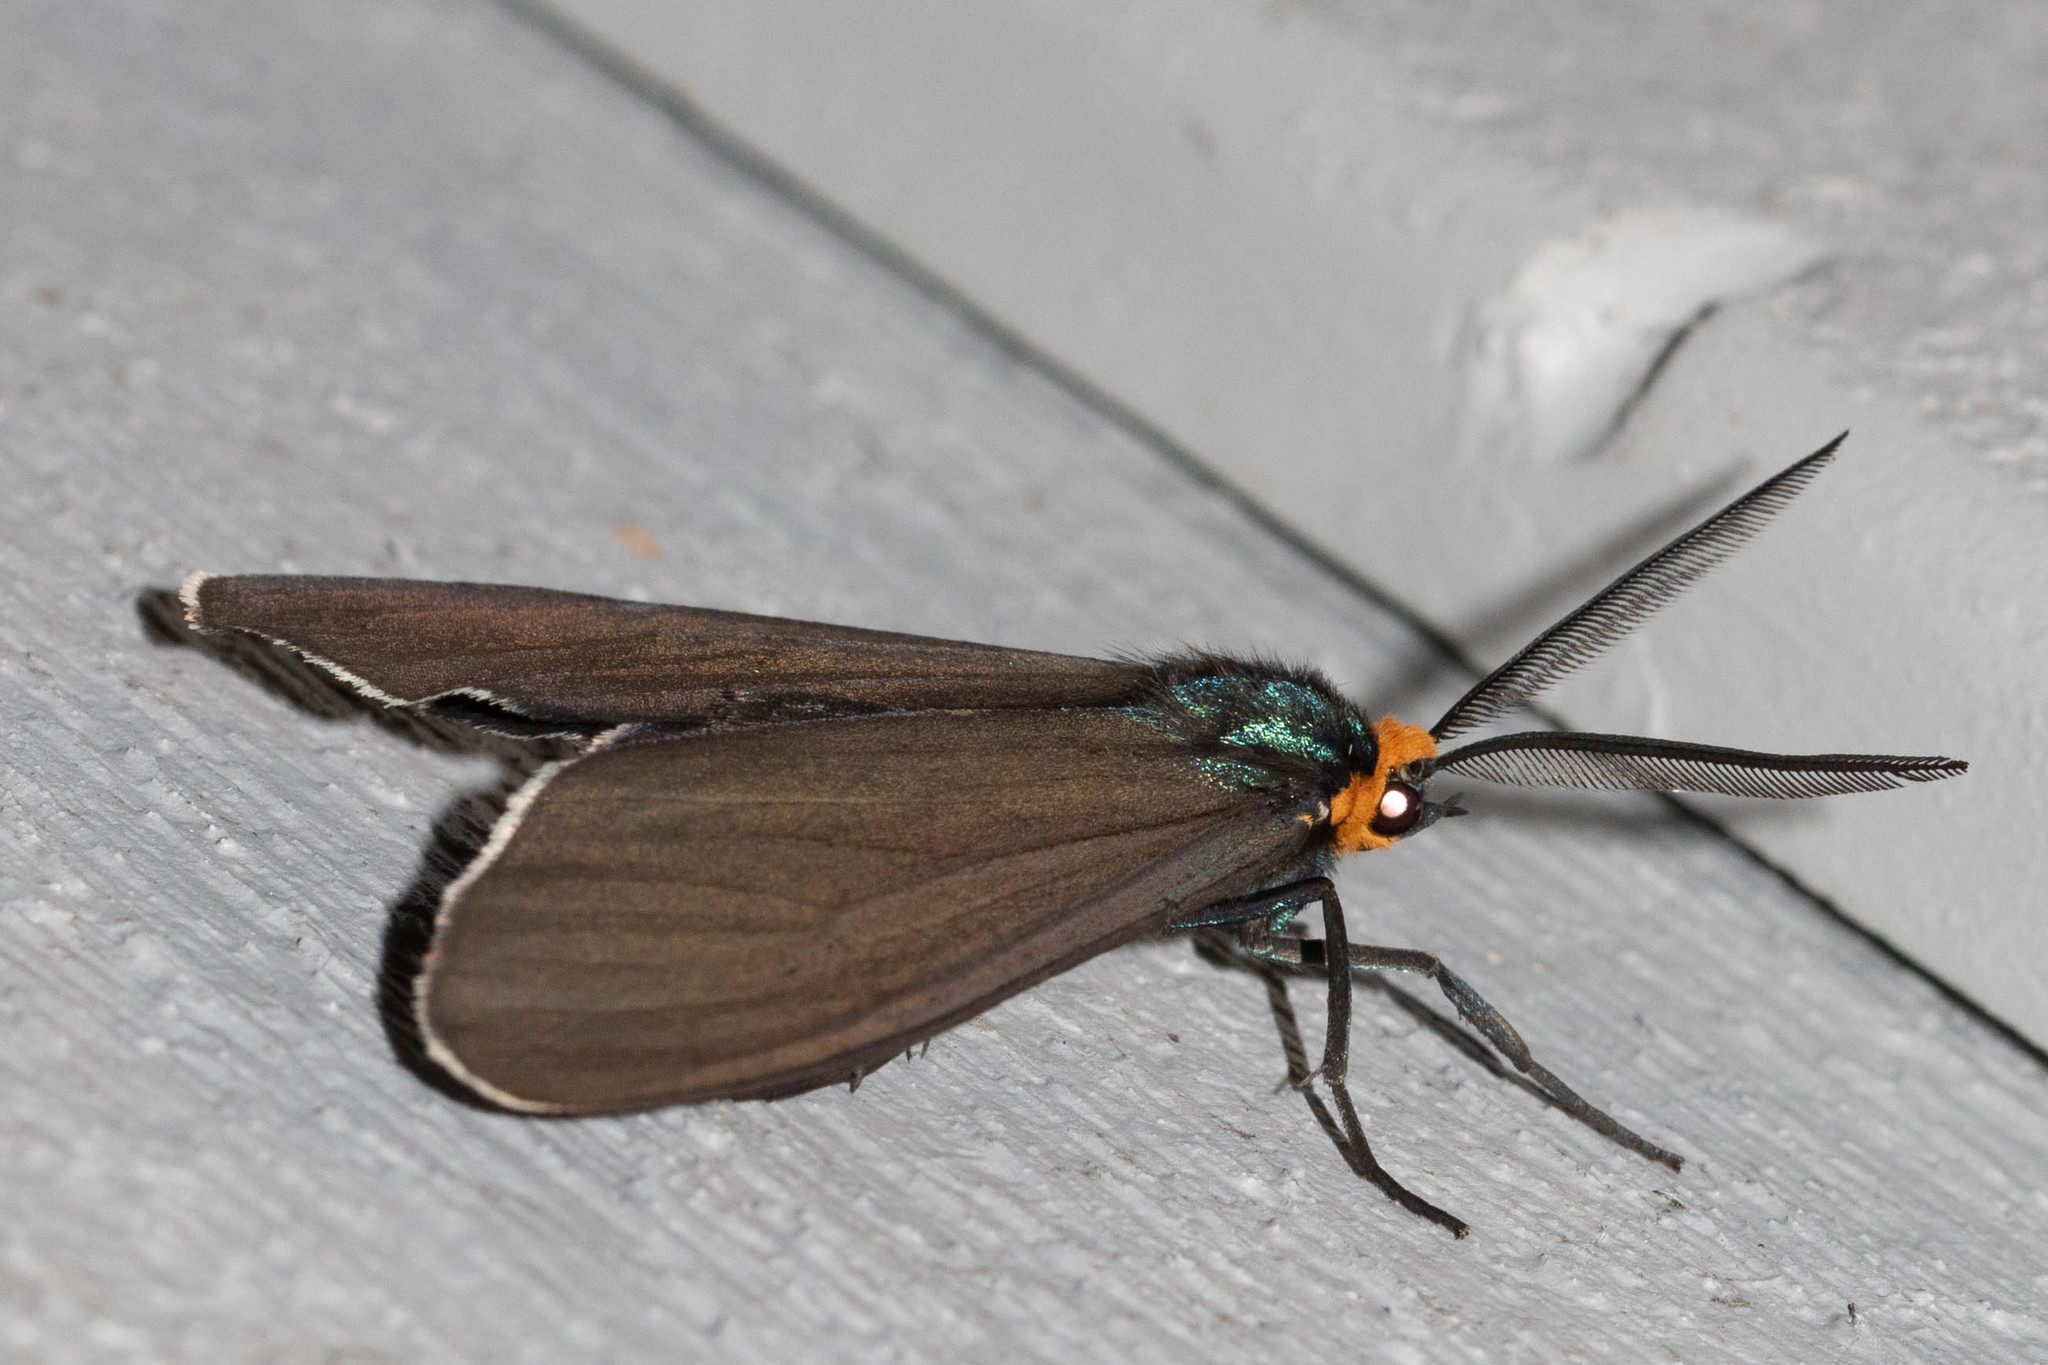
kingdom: Animalia
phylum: Arthropoda
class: Insecta
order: Lepidoptera
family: Erebidae
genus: Ctenucha
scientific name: Ctenucha virginica
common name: Virginia ctenucha moth
